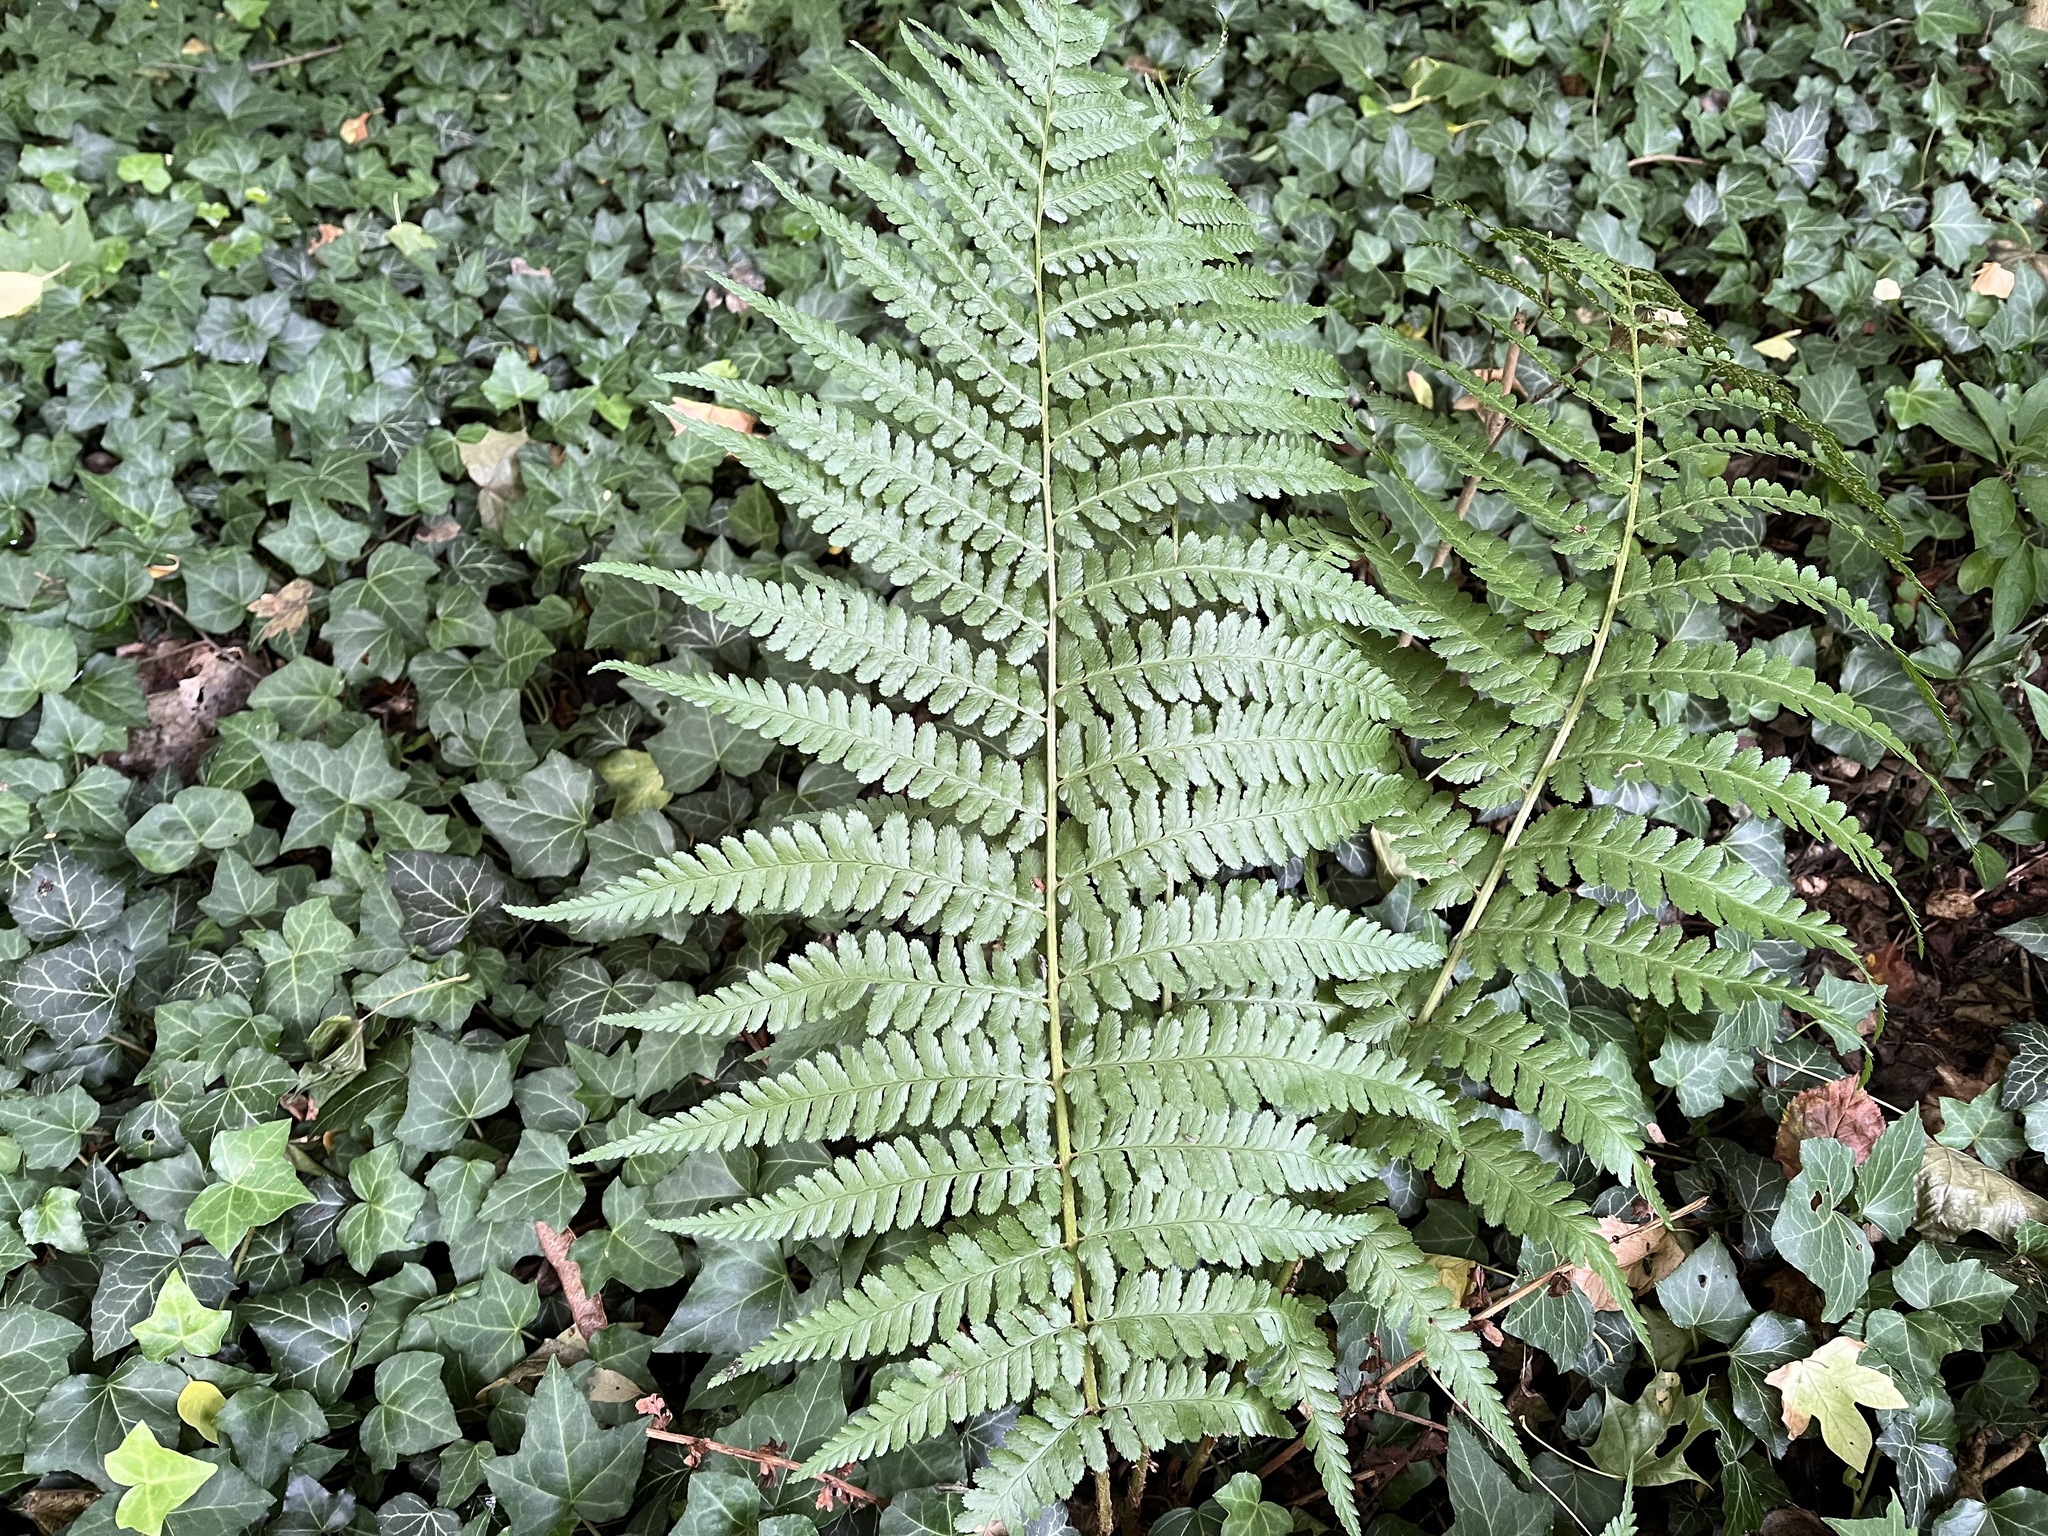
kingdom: Plantae
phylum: Tracheophyta
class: Polypodiopsida
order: Polypodiales
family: Dryopteridaceae
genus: Dryopteris
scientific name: Dryopteris filix-mas
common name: Male fern
